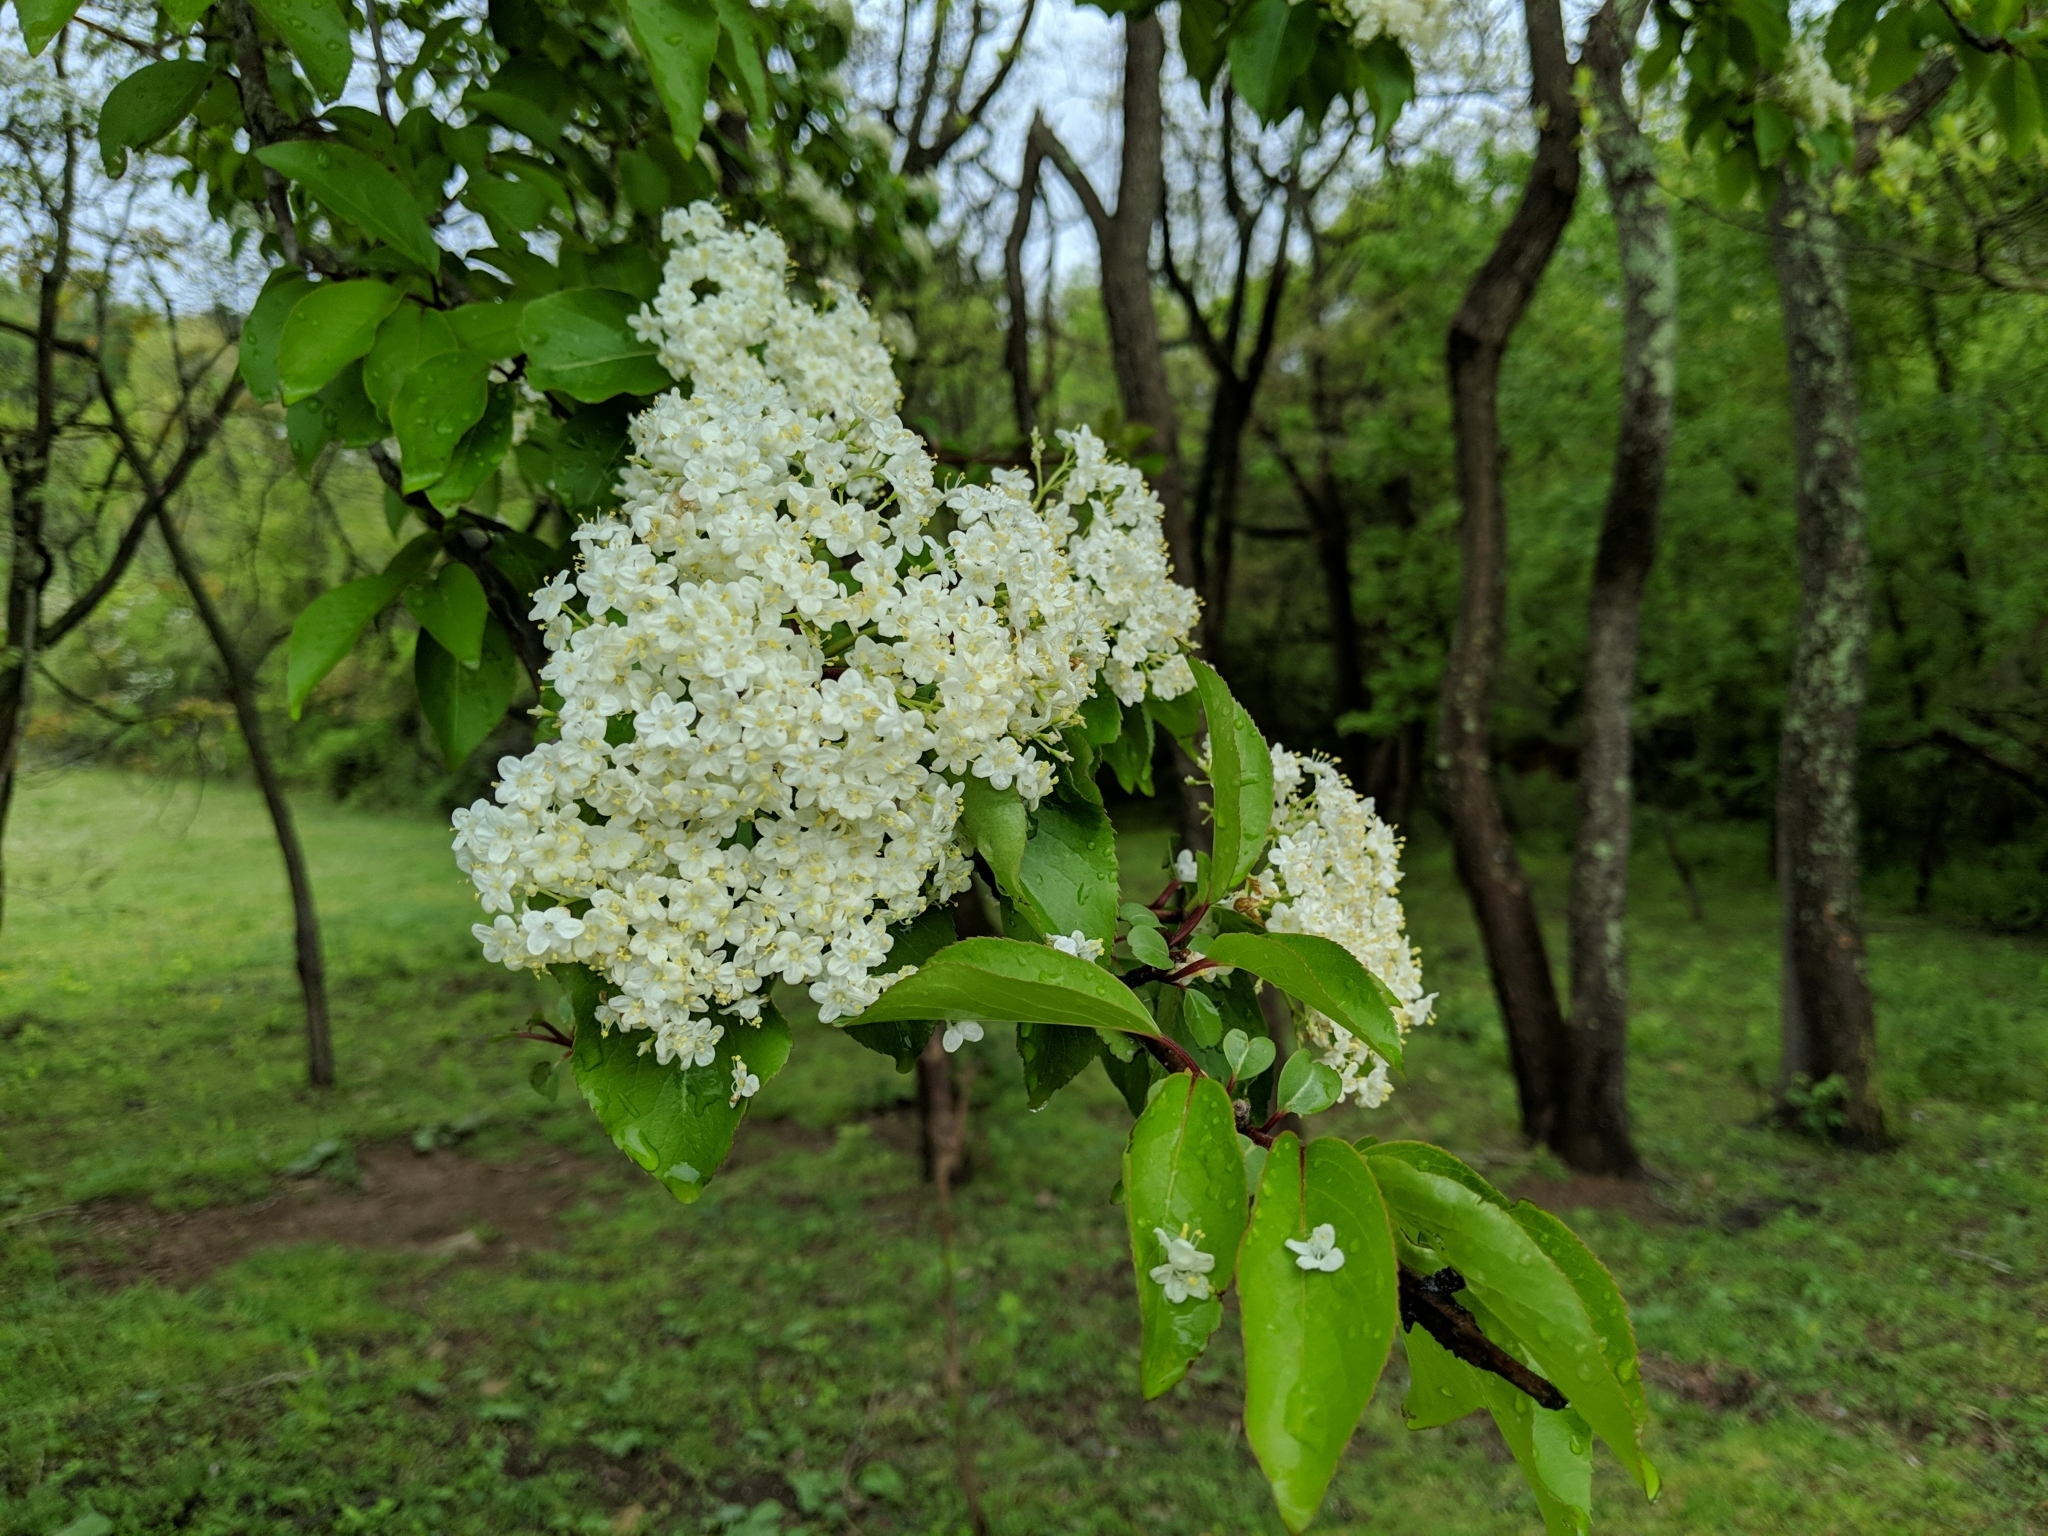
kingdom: Plantae
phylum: Tracheophyta
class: Magnoliopsida
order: Dipsacales
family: Viburnaceae
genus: Viburnum
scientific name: Viburnum prunifolium
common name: Black haw
